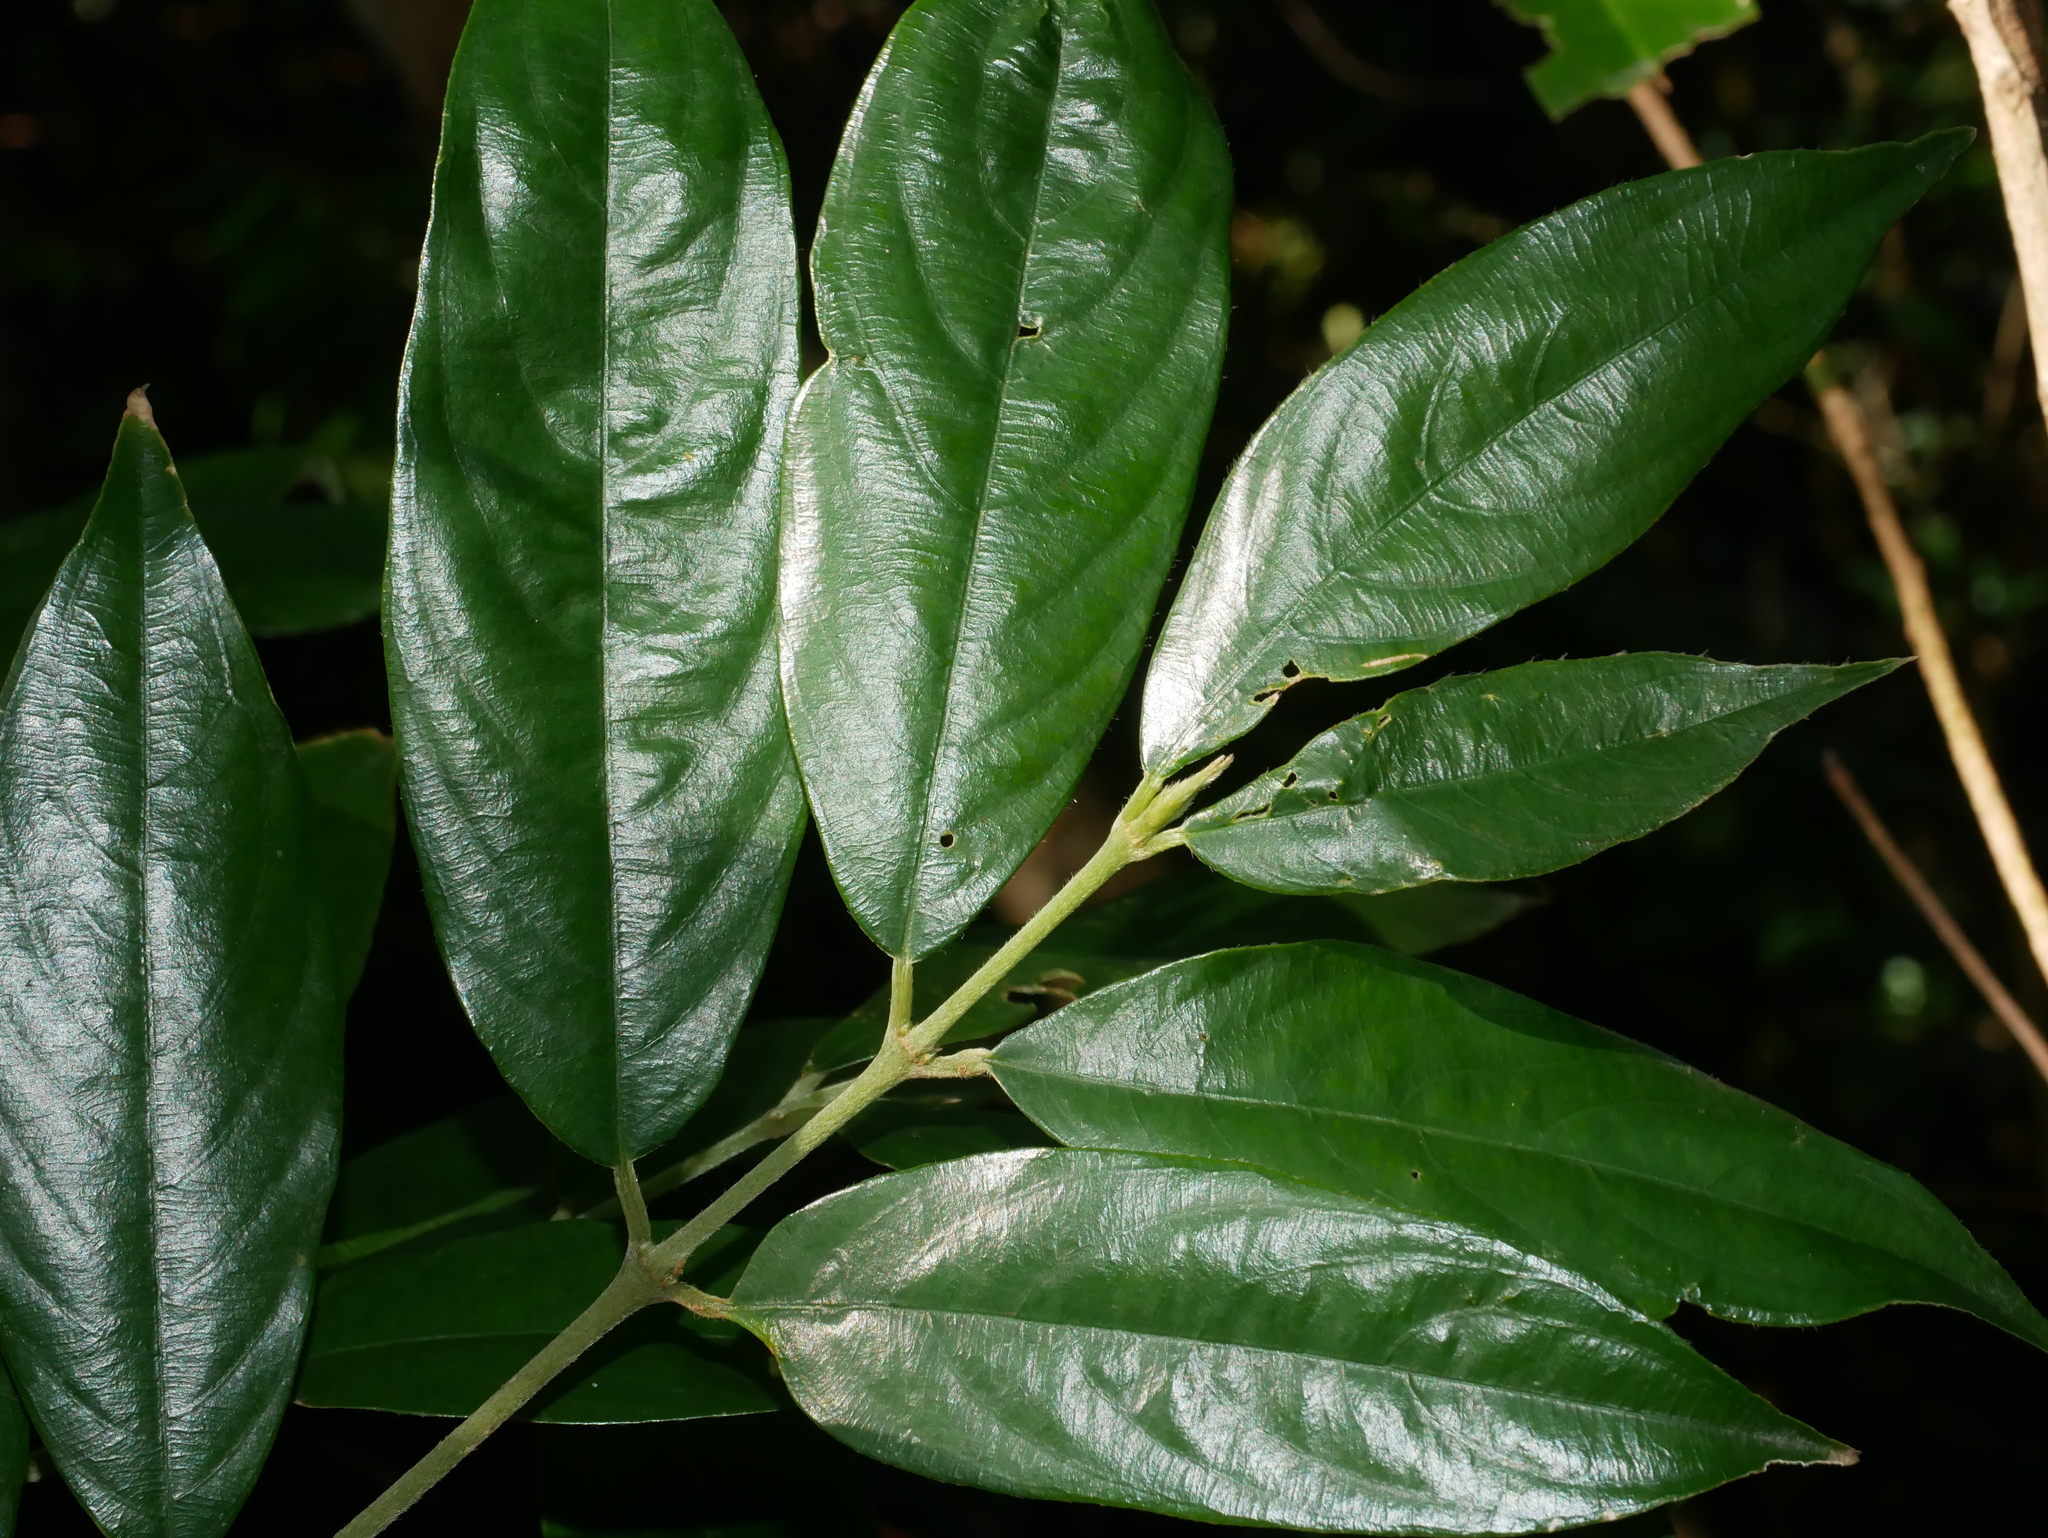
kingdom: Plantae
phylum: Tracheophyta
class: Magnoliopsida
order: Gentianales
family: Rubiaceae
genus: Lasianthus
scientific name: Lasianthus henryi
